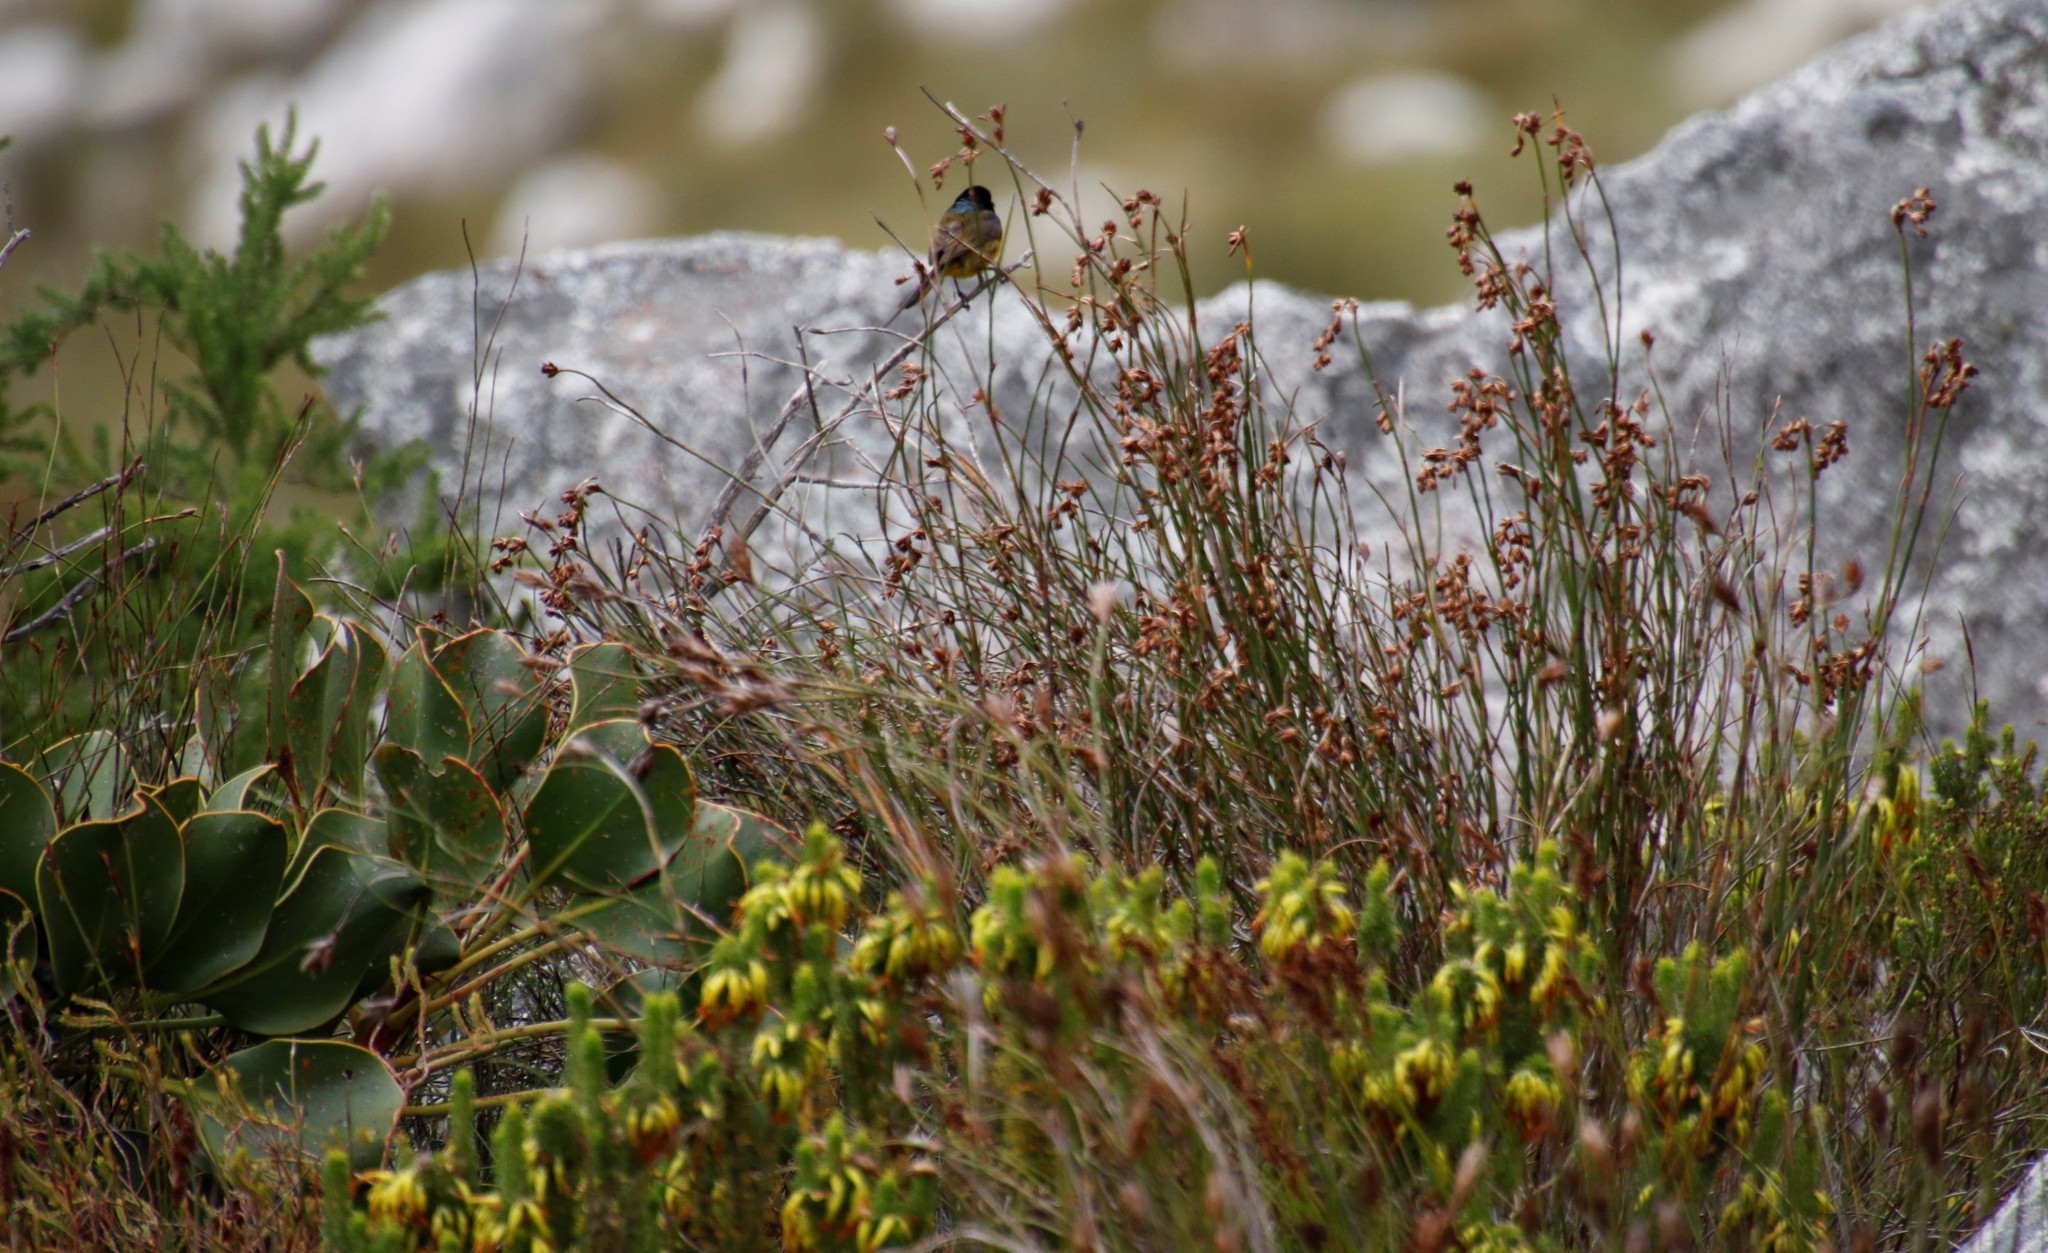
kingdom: Animalia
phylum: Chordata
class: Aves
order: Passeriformes
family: Nectariniidae
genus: Anthobaphes
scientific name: Anthobaphes violacea
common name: Orange-breasted sunbird
